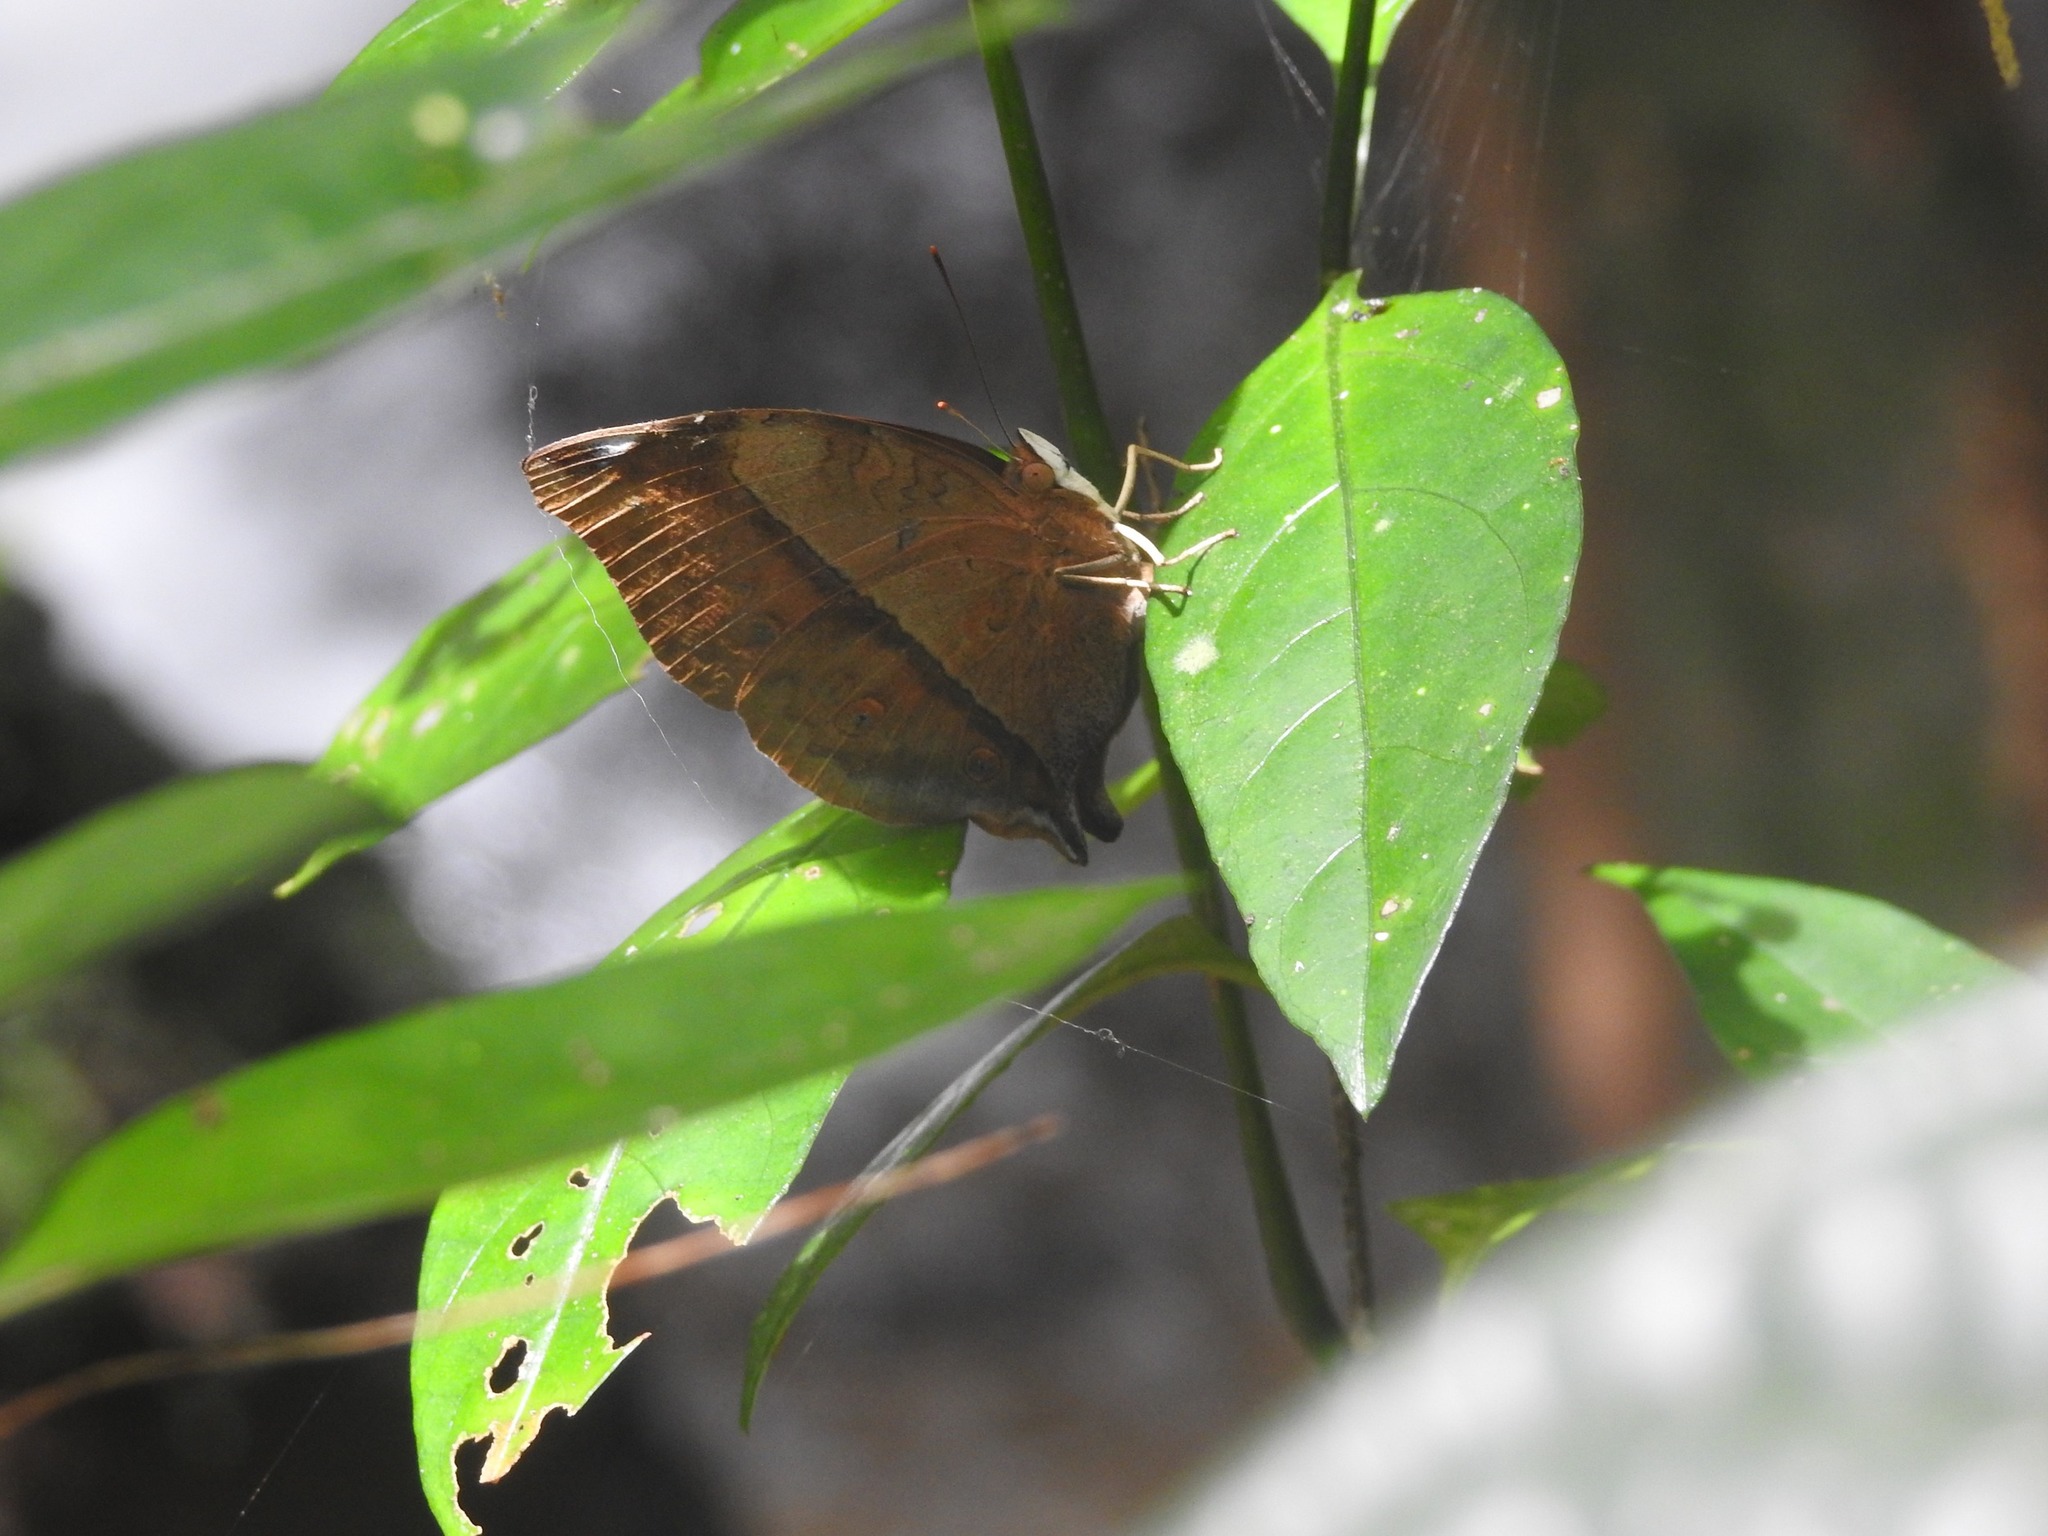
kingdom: Animalia
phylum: Arthropoda
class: Insecta
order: Lepidoptera
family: Nymphalidae
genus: Doleschallia
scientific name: Doleschallia bisaltide
